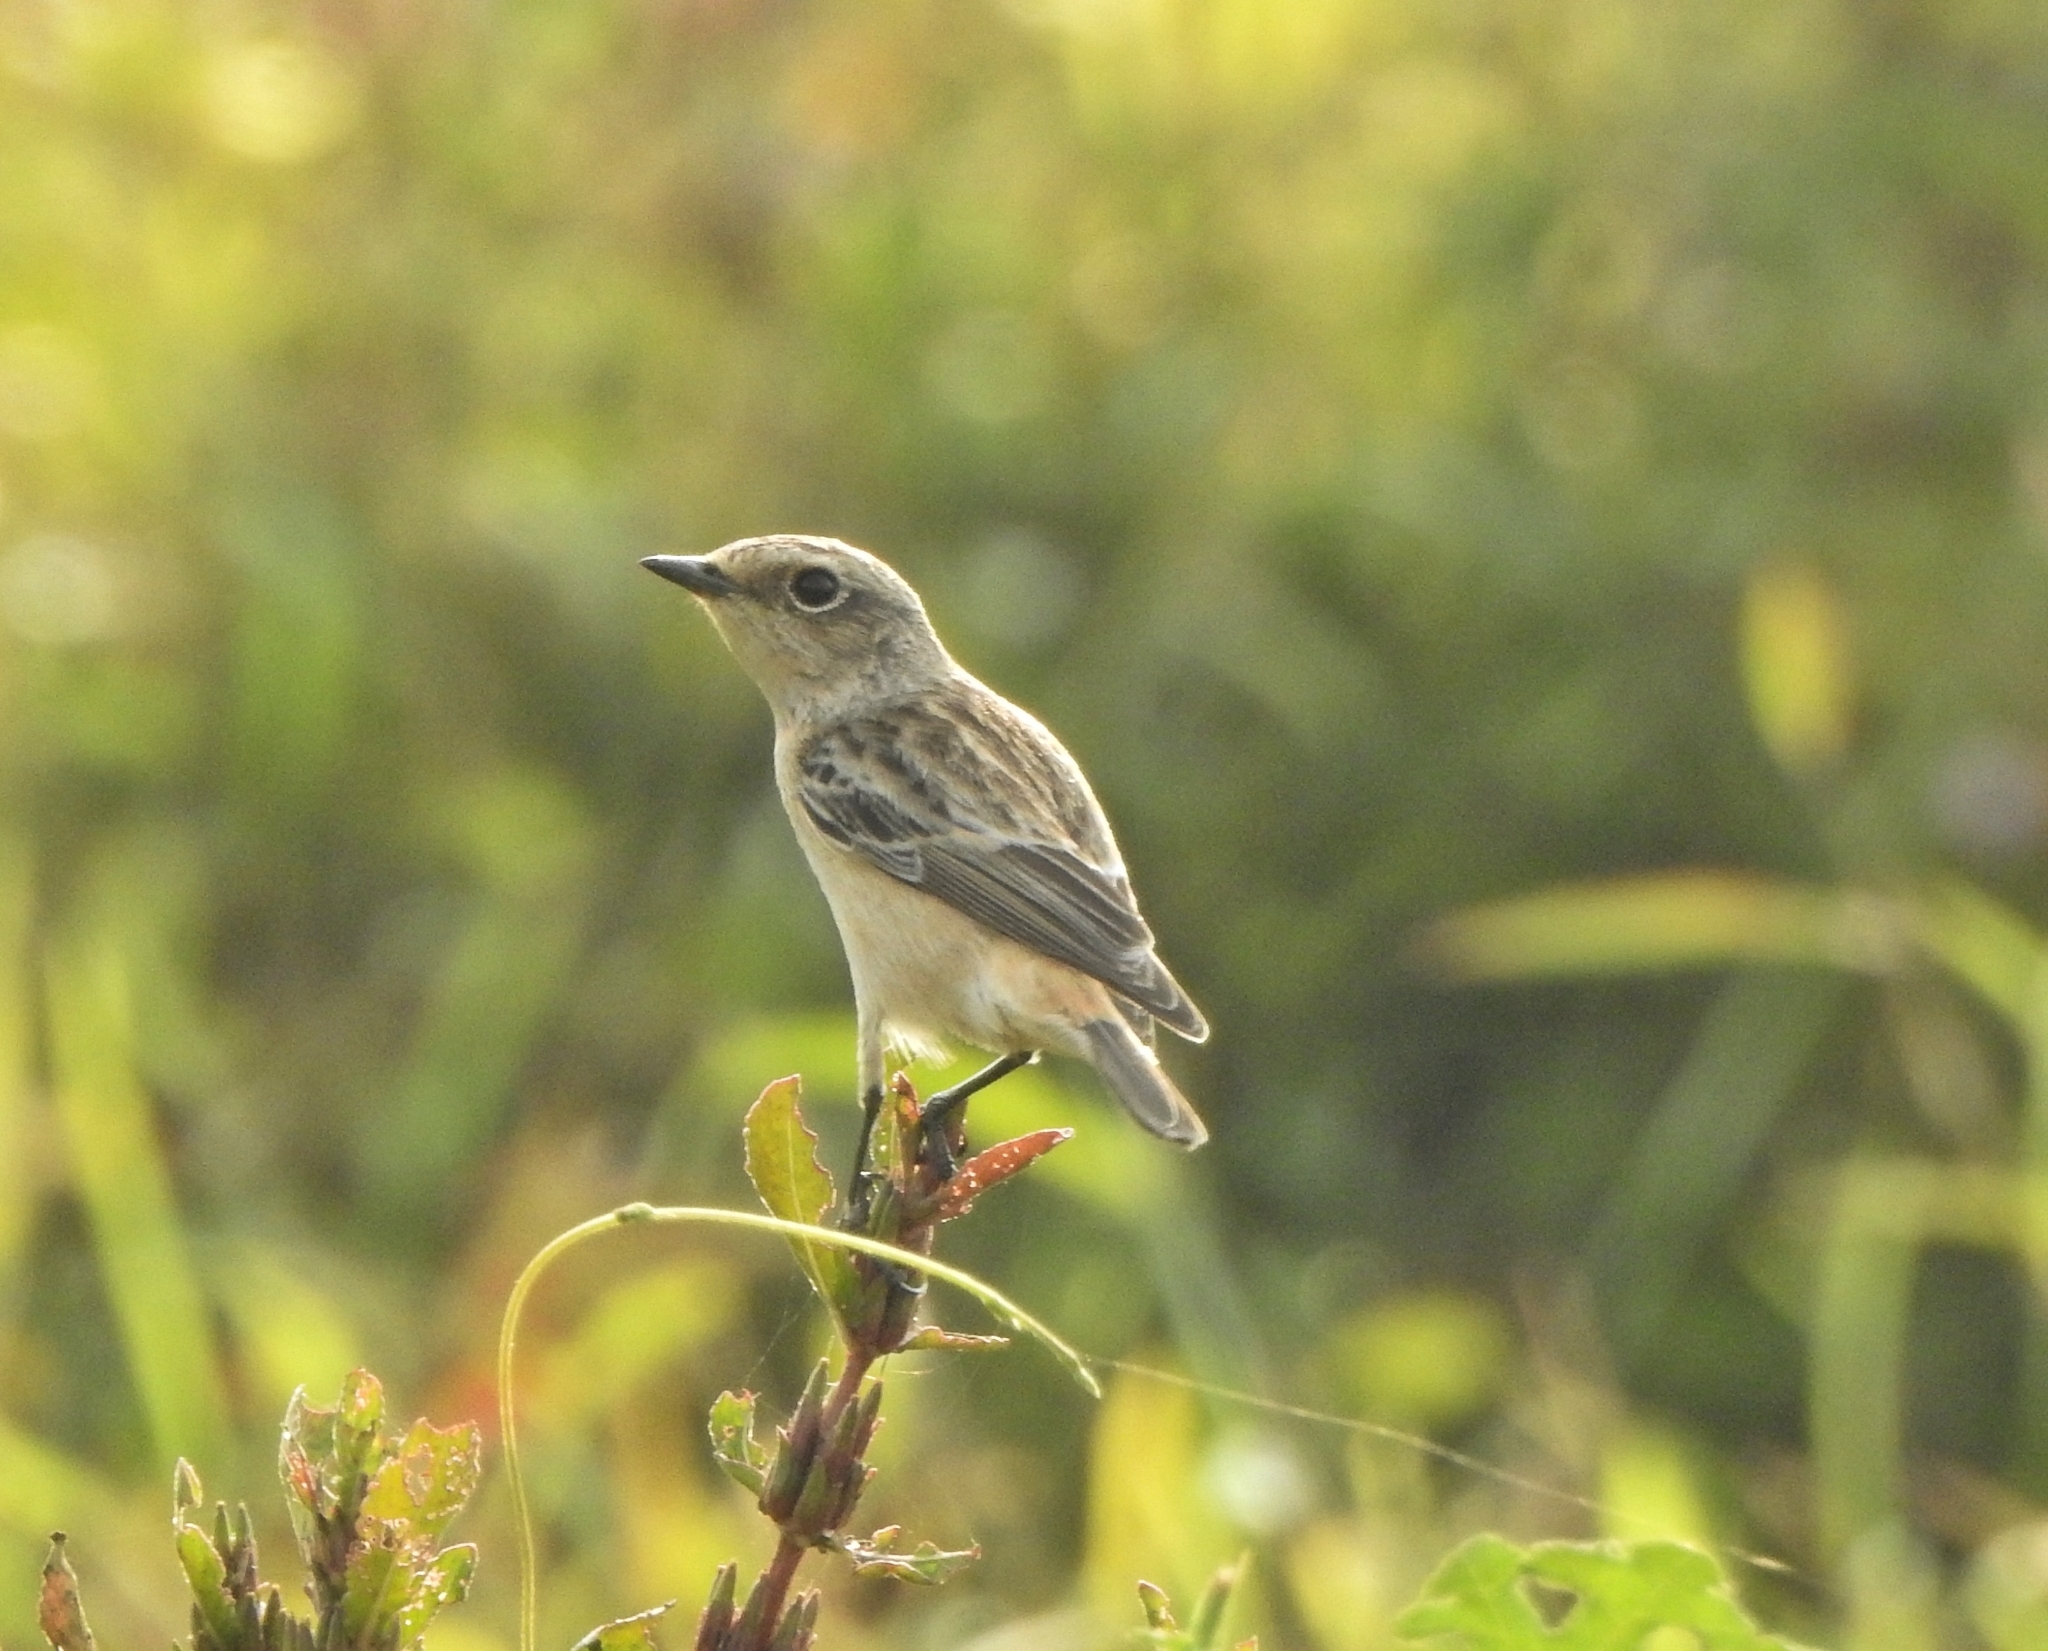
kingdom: Animalia
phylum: Chordata
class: Aves
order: Passeriformes
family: Muscicapidae
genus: Saxicola
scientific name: Saxicola maurus
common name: Siberian stonechat
